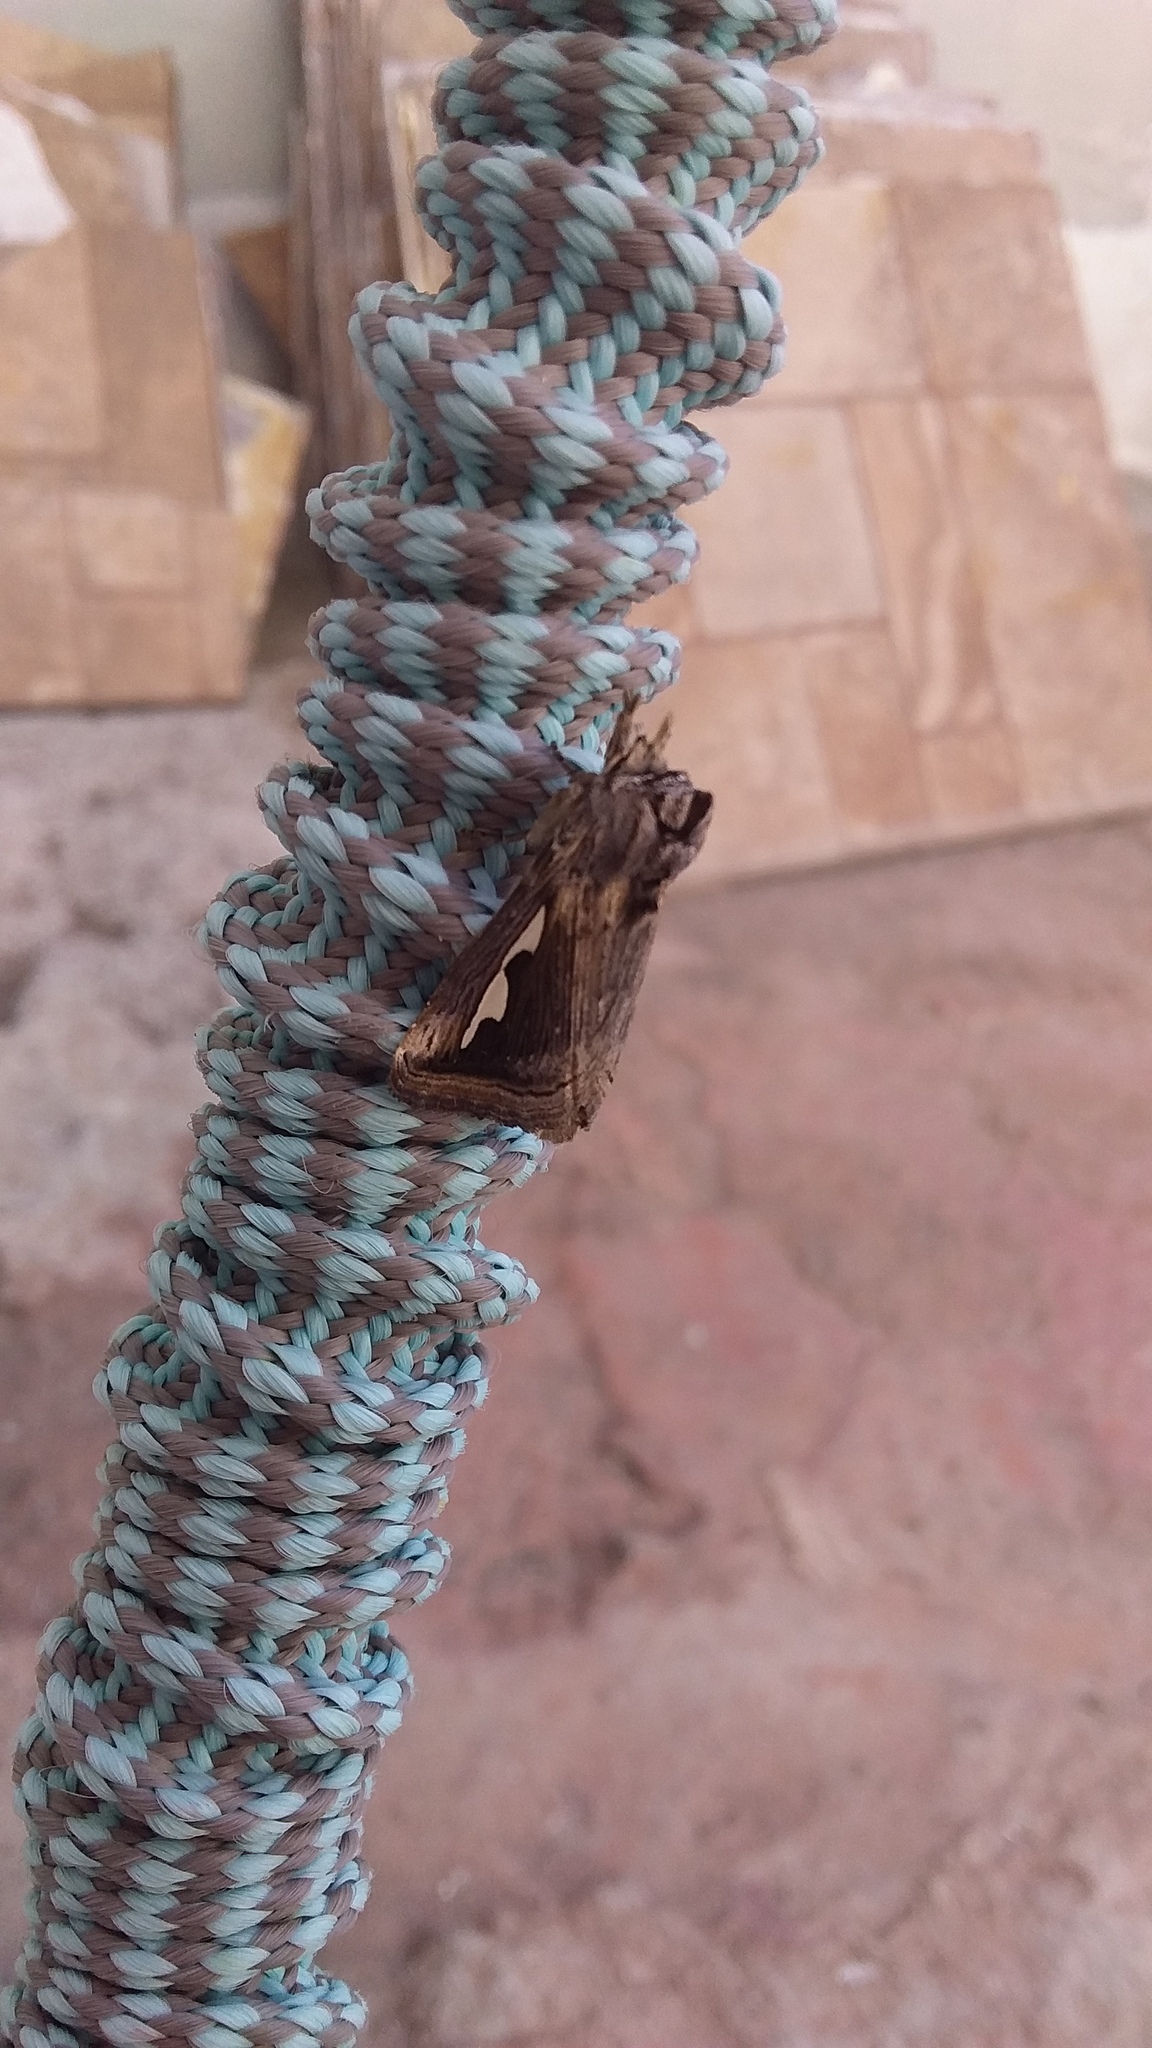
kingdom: Animalia
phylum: Arthropoda
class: Insecta
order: Lepidoptera
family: Notodontidae
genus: Didugua
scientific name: Didugua argentilinea
